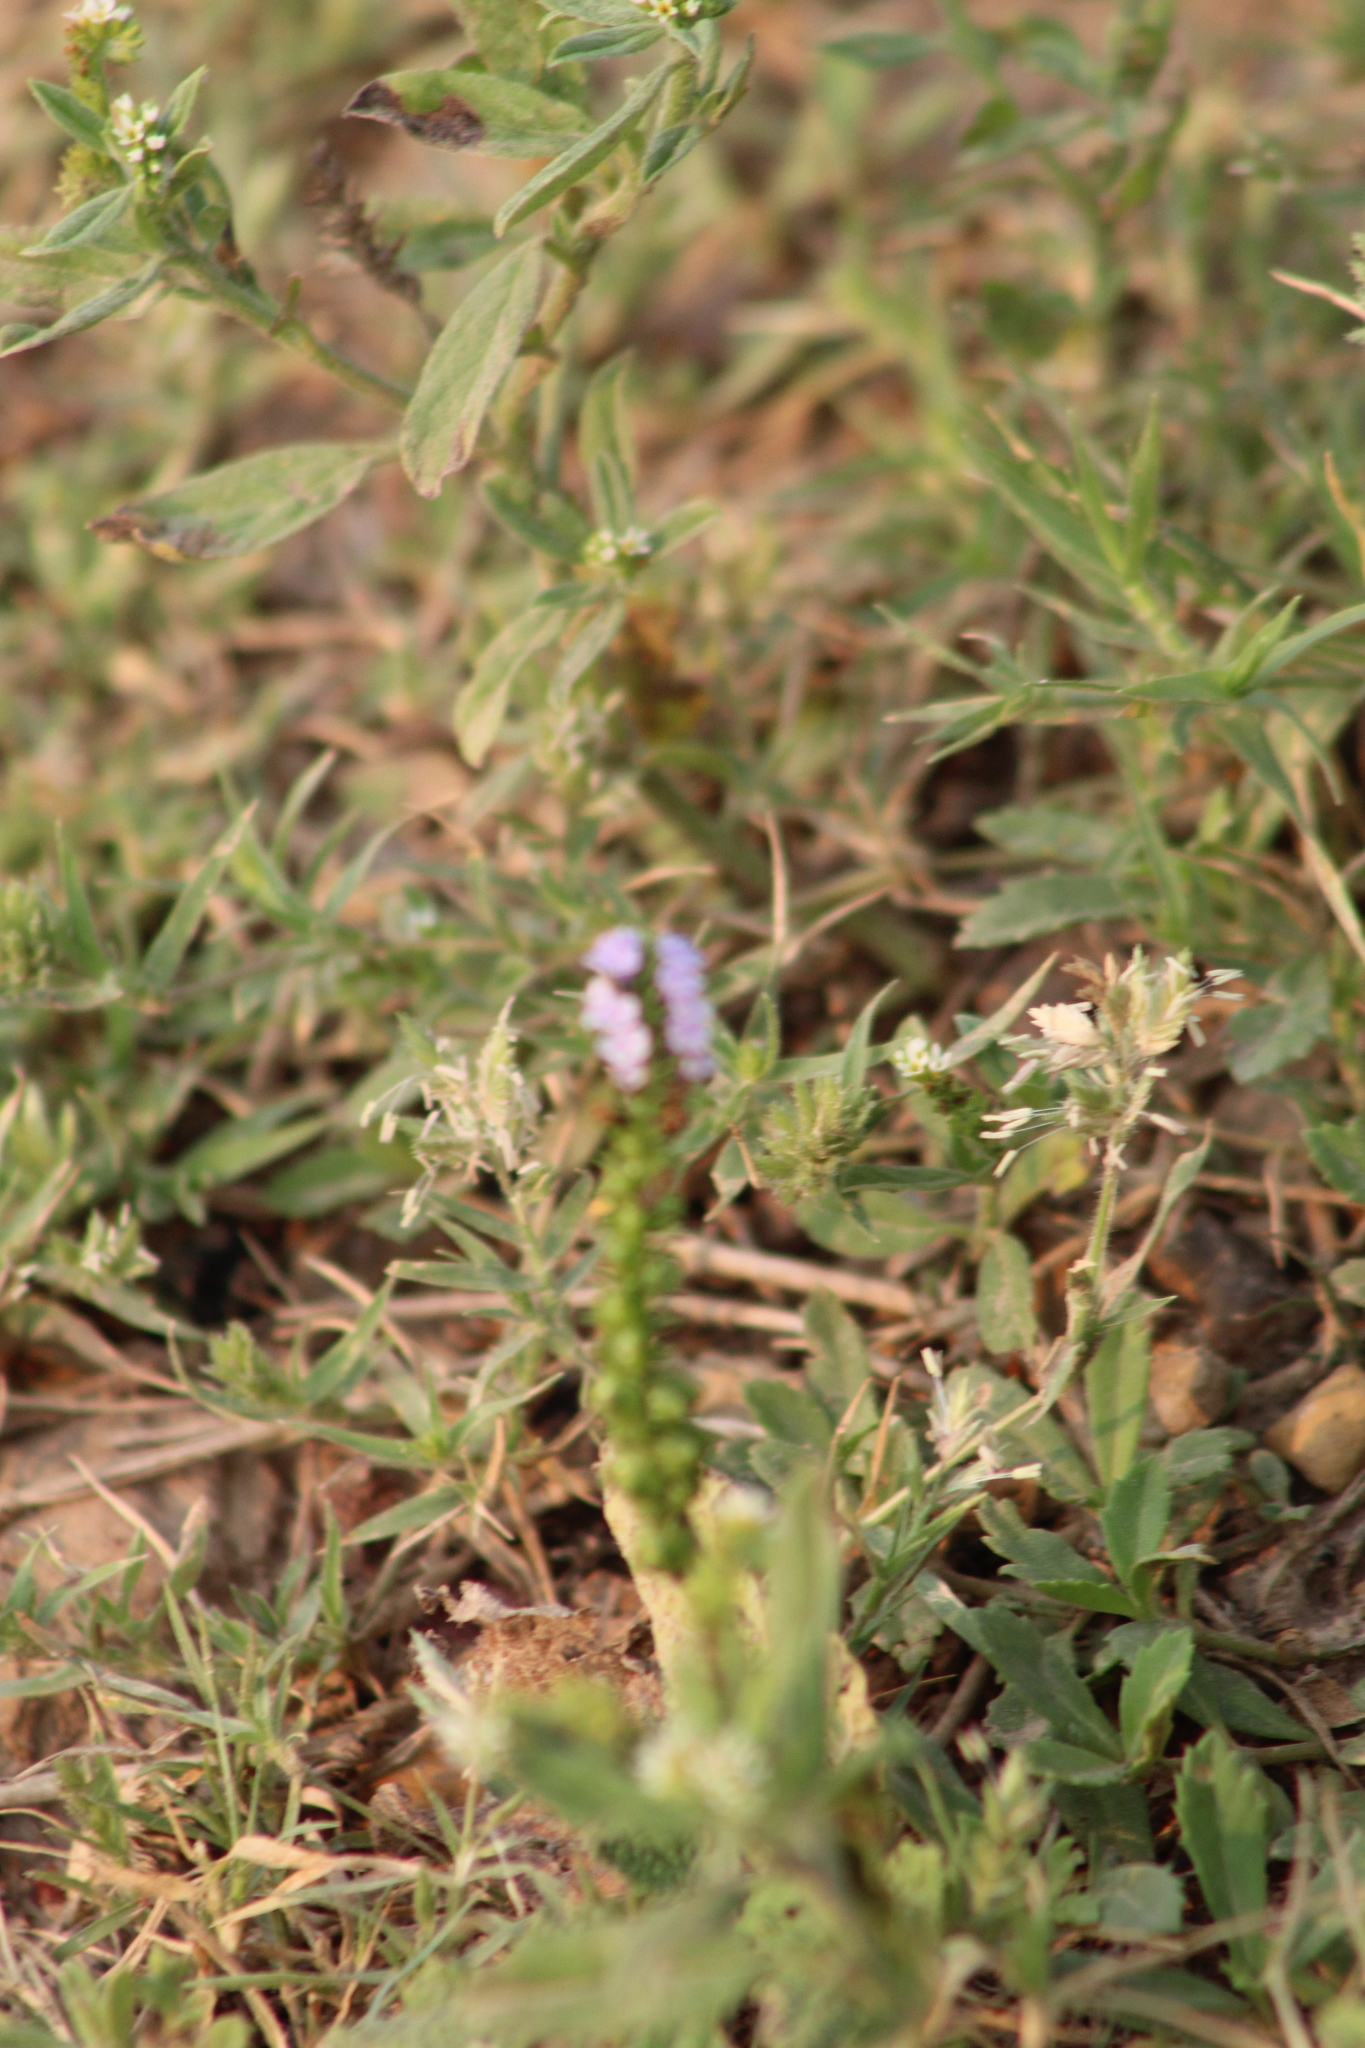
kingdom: Plantae
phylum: Tracheophyta
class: Magnoliopsida
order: Boraginales
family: Heliotropiaceae
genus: Heliotropium
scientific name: Heliotropium indicum
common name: Indian heliotrope
